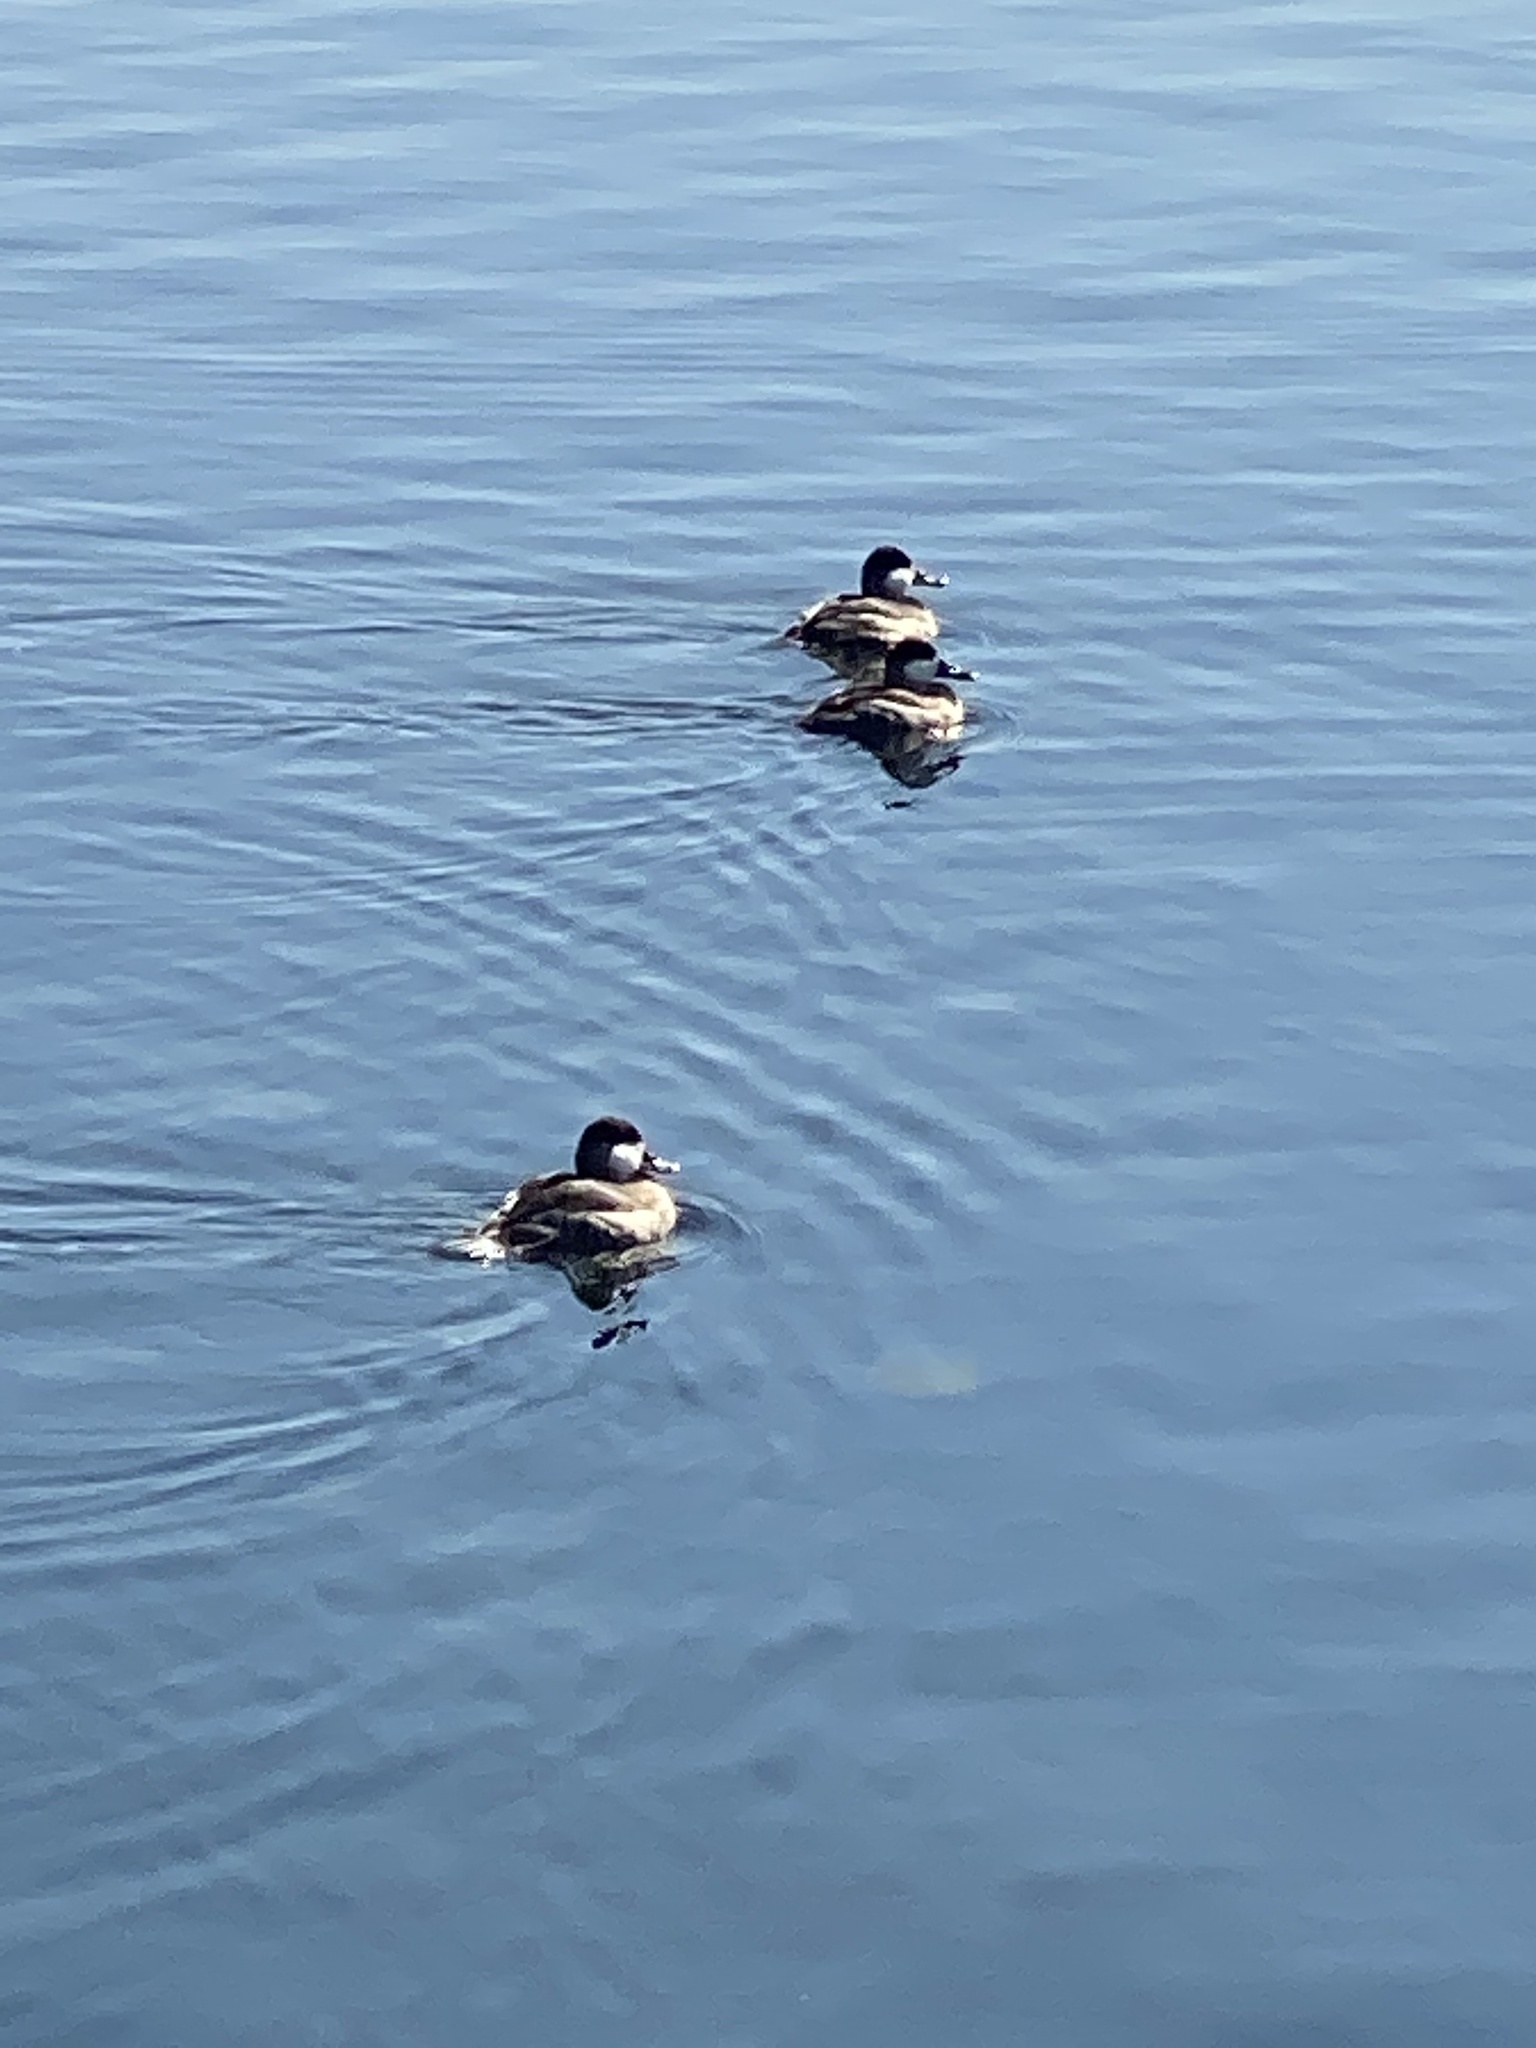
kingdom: Animalia
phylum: Chordata
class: Aves
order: Anseriformes
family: Anatidae
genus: Oxyura
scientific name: Oxyura jamaicensis
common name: Ruddy duck
